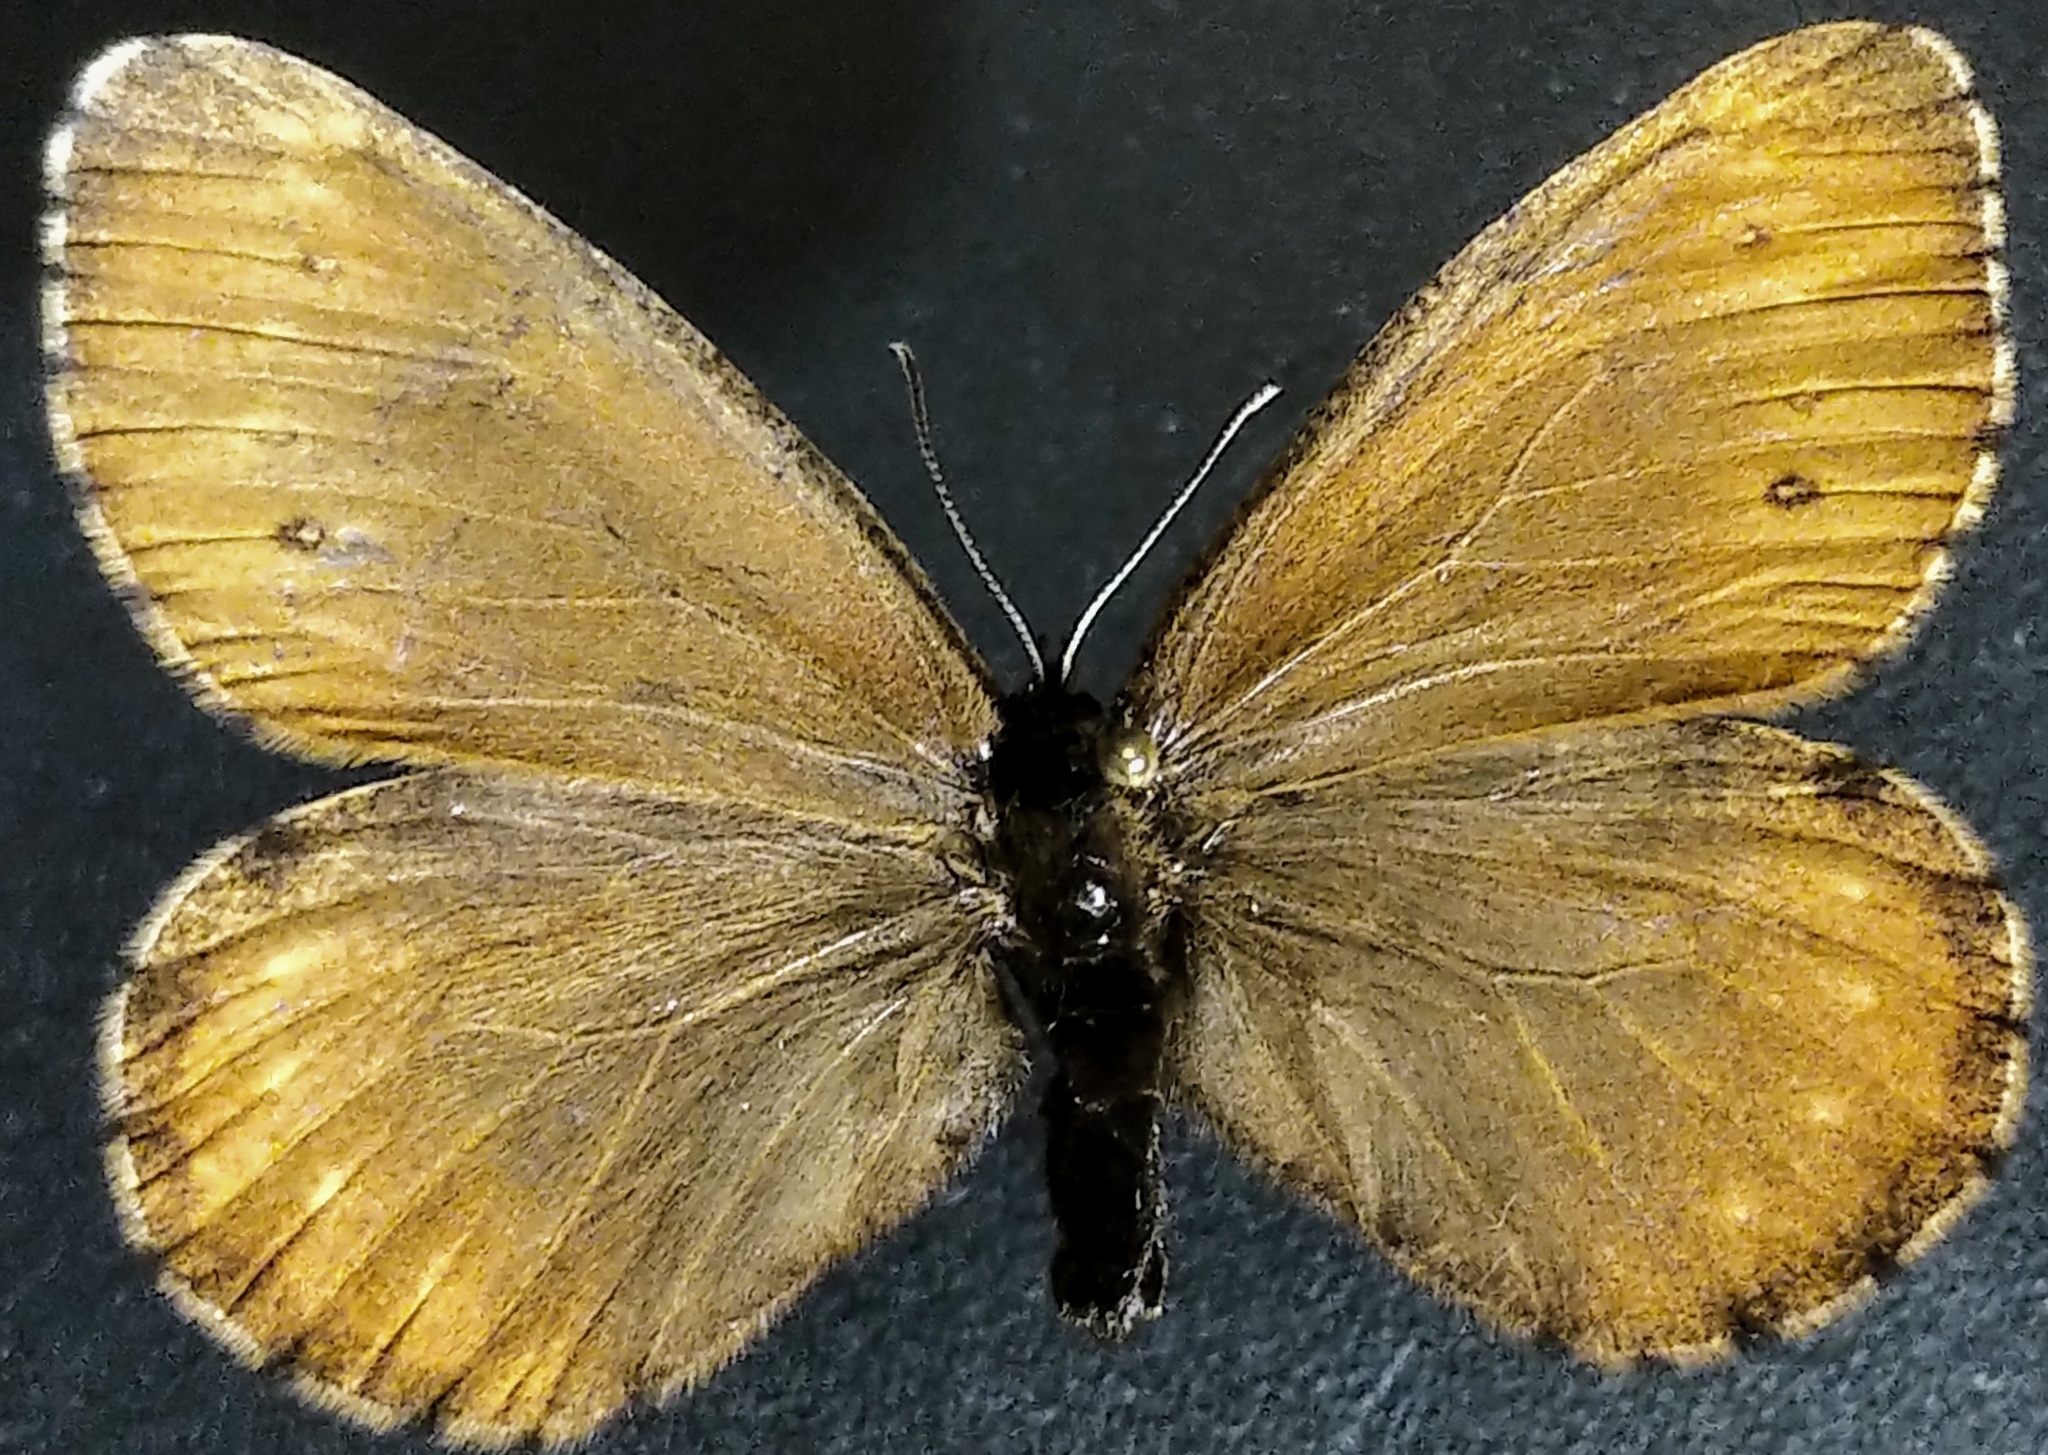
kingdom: Animalia
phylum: Arthropoda
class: Insecta
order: Lepidoptera
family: Nymphalidae
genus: Oeneis
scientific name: Oeneis bore
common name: Arctic grayling
